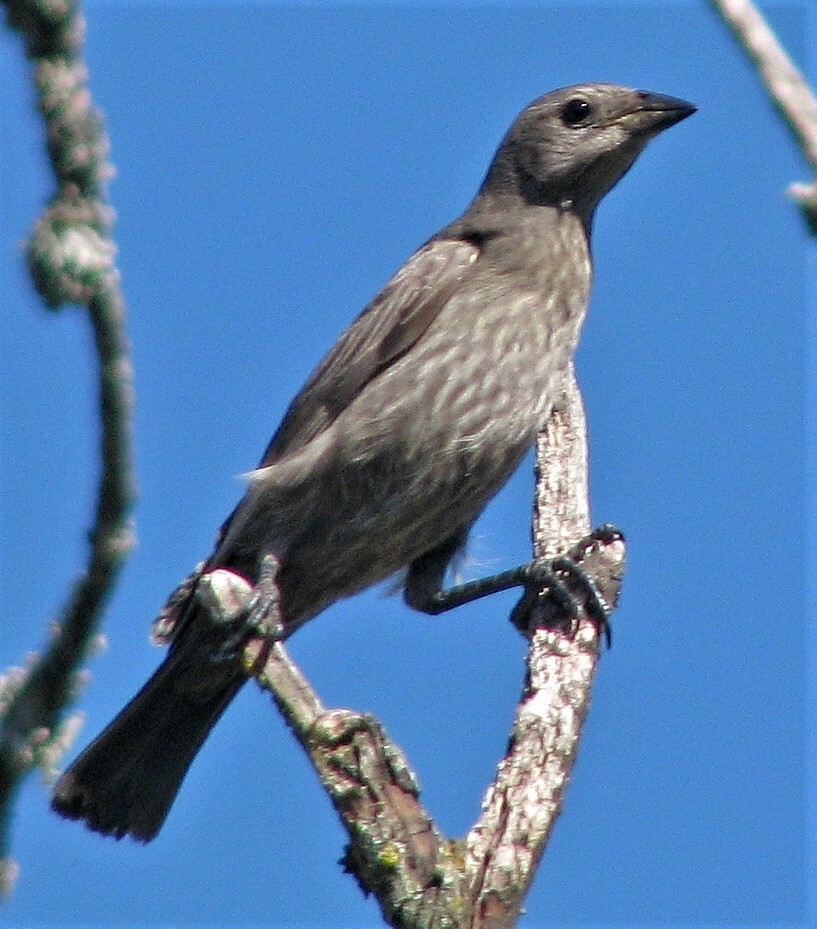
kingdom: Animalia
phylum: Chordata
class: Aves
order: Passeriformes
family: Icteridae
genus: Molothrus
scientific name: Molothrus bonariensis
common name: Shiny cowbird
